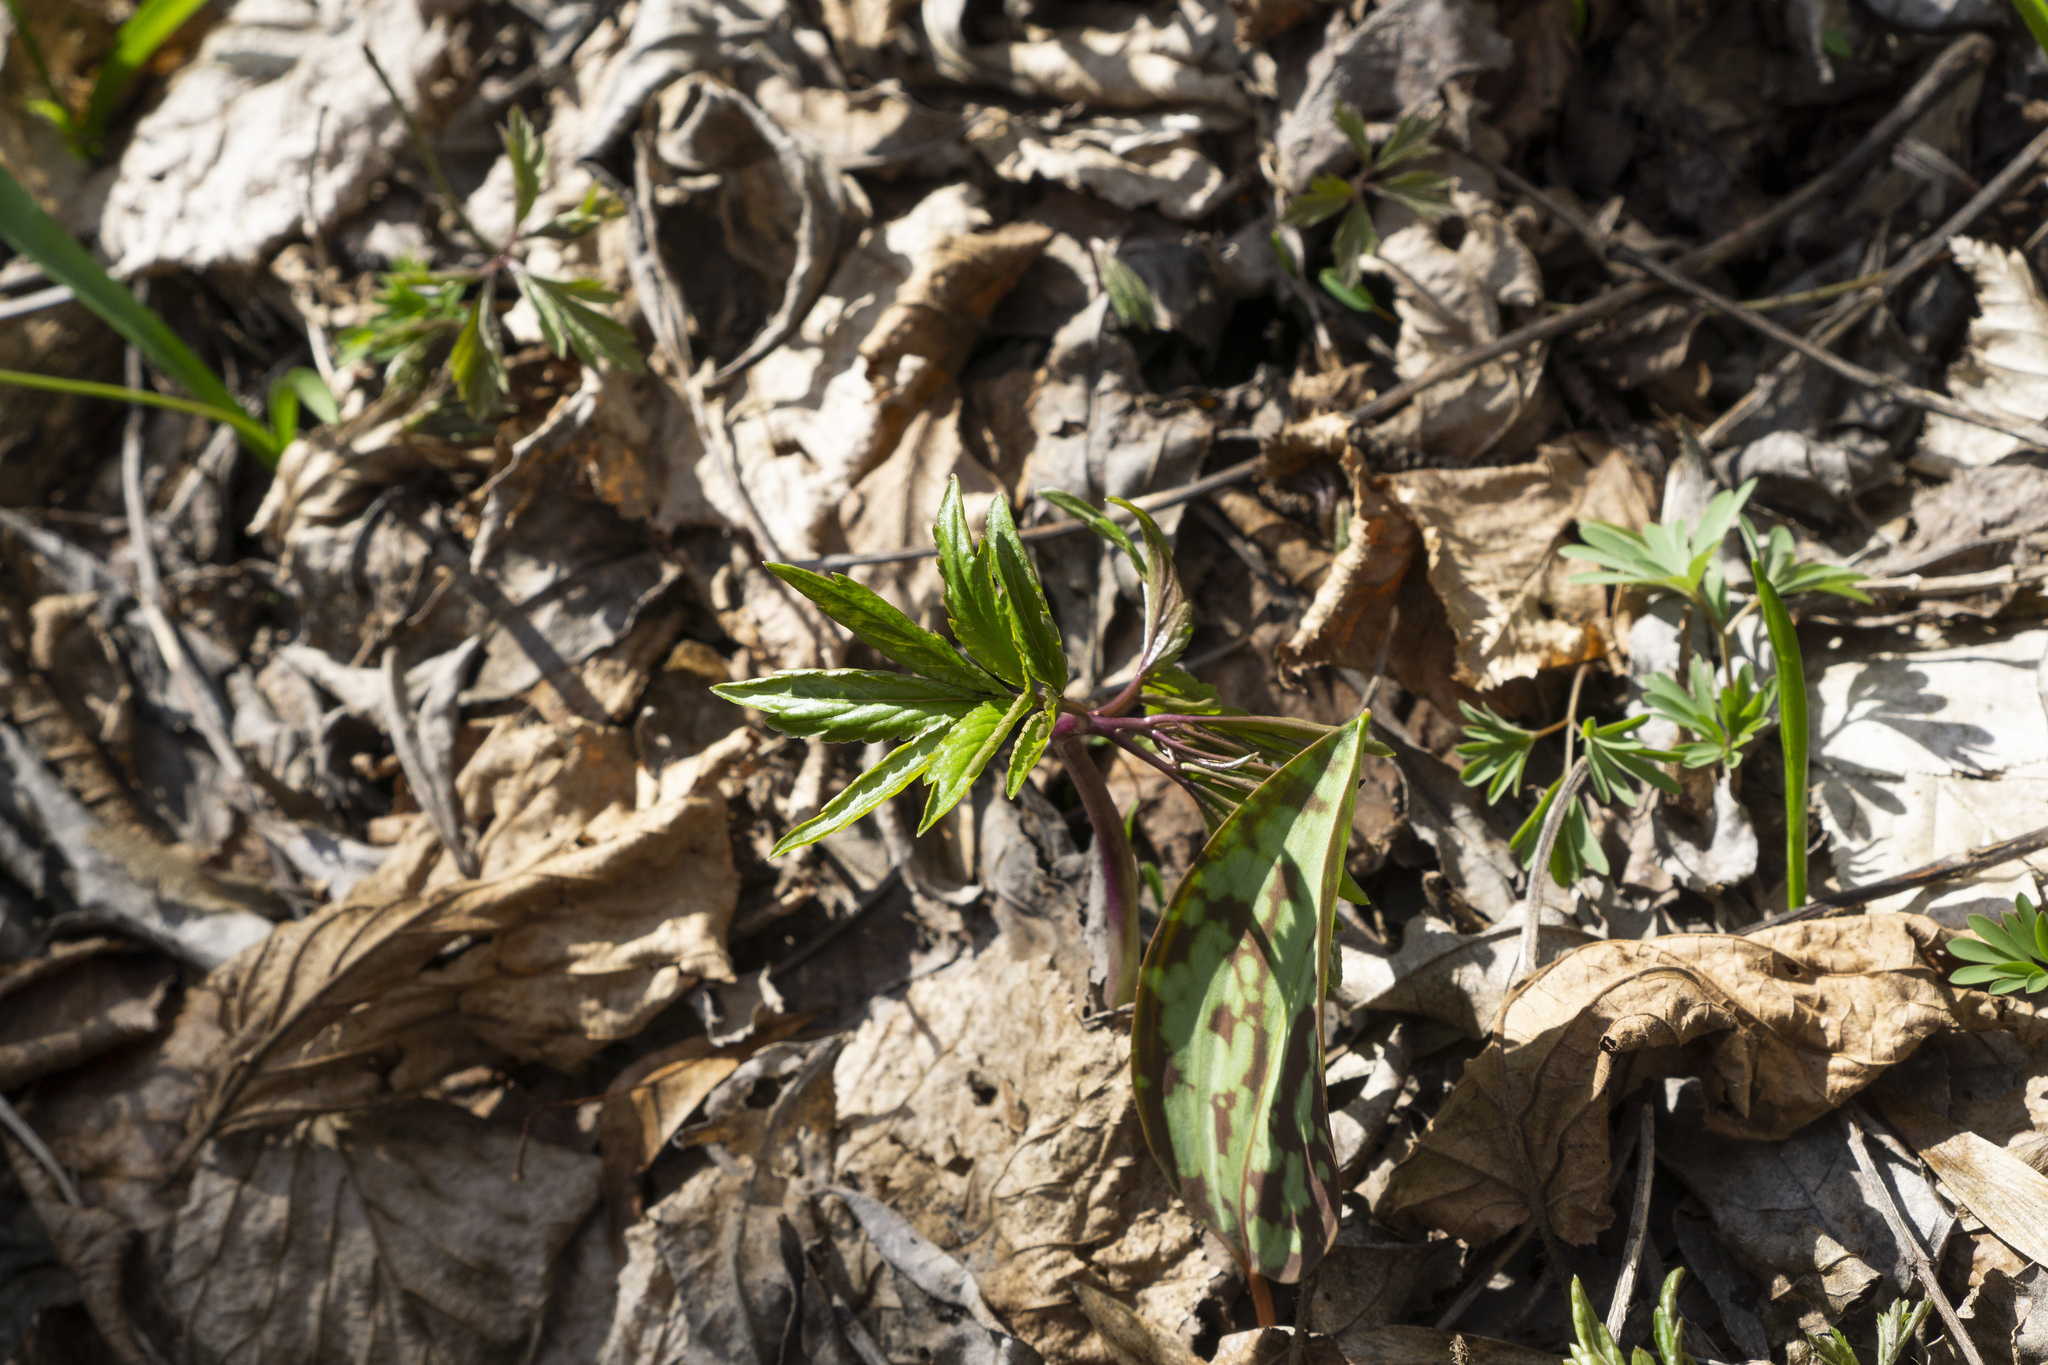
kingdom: Plantae
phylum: Tracheophyta
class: Magnoliopsida
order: Brassicales
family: Brassicaceae
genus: Cardamine
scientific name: Cardamine bulbifera
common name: Coralroot bittercress
